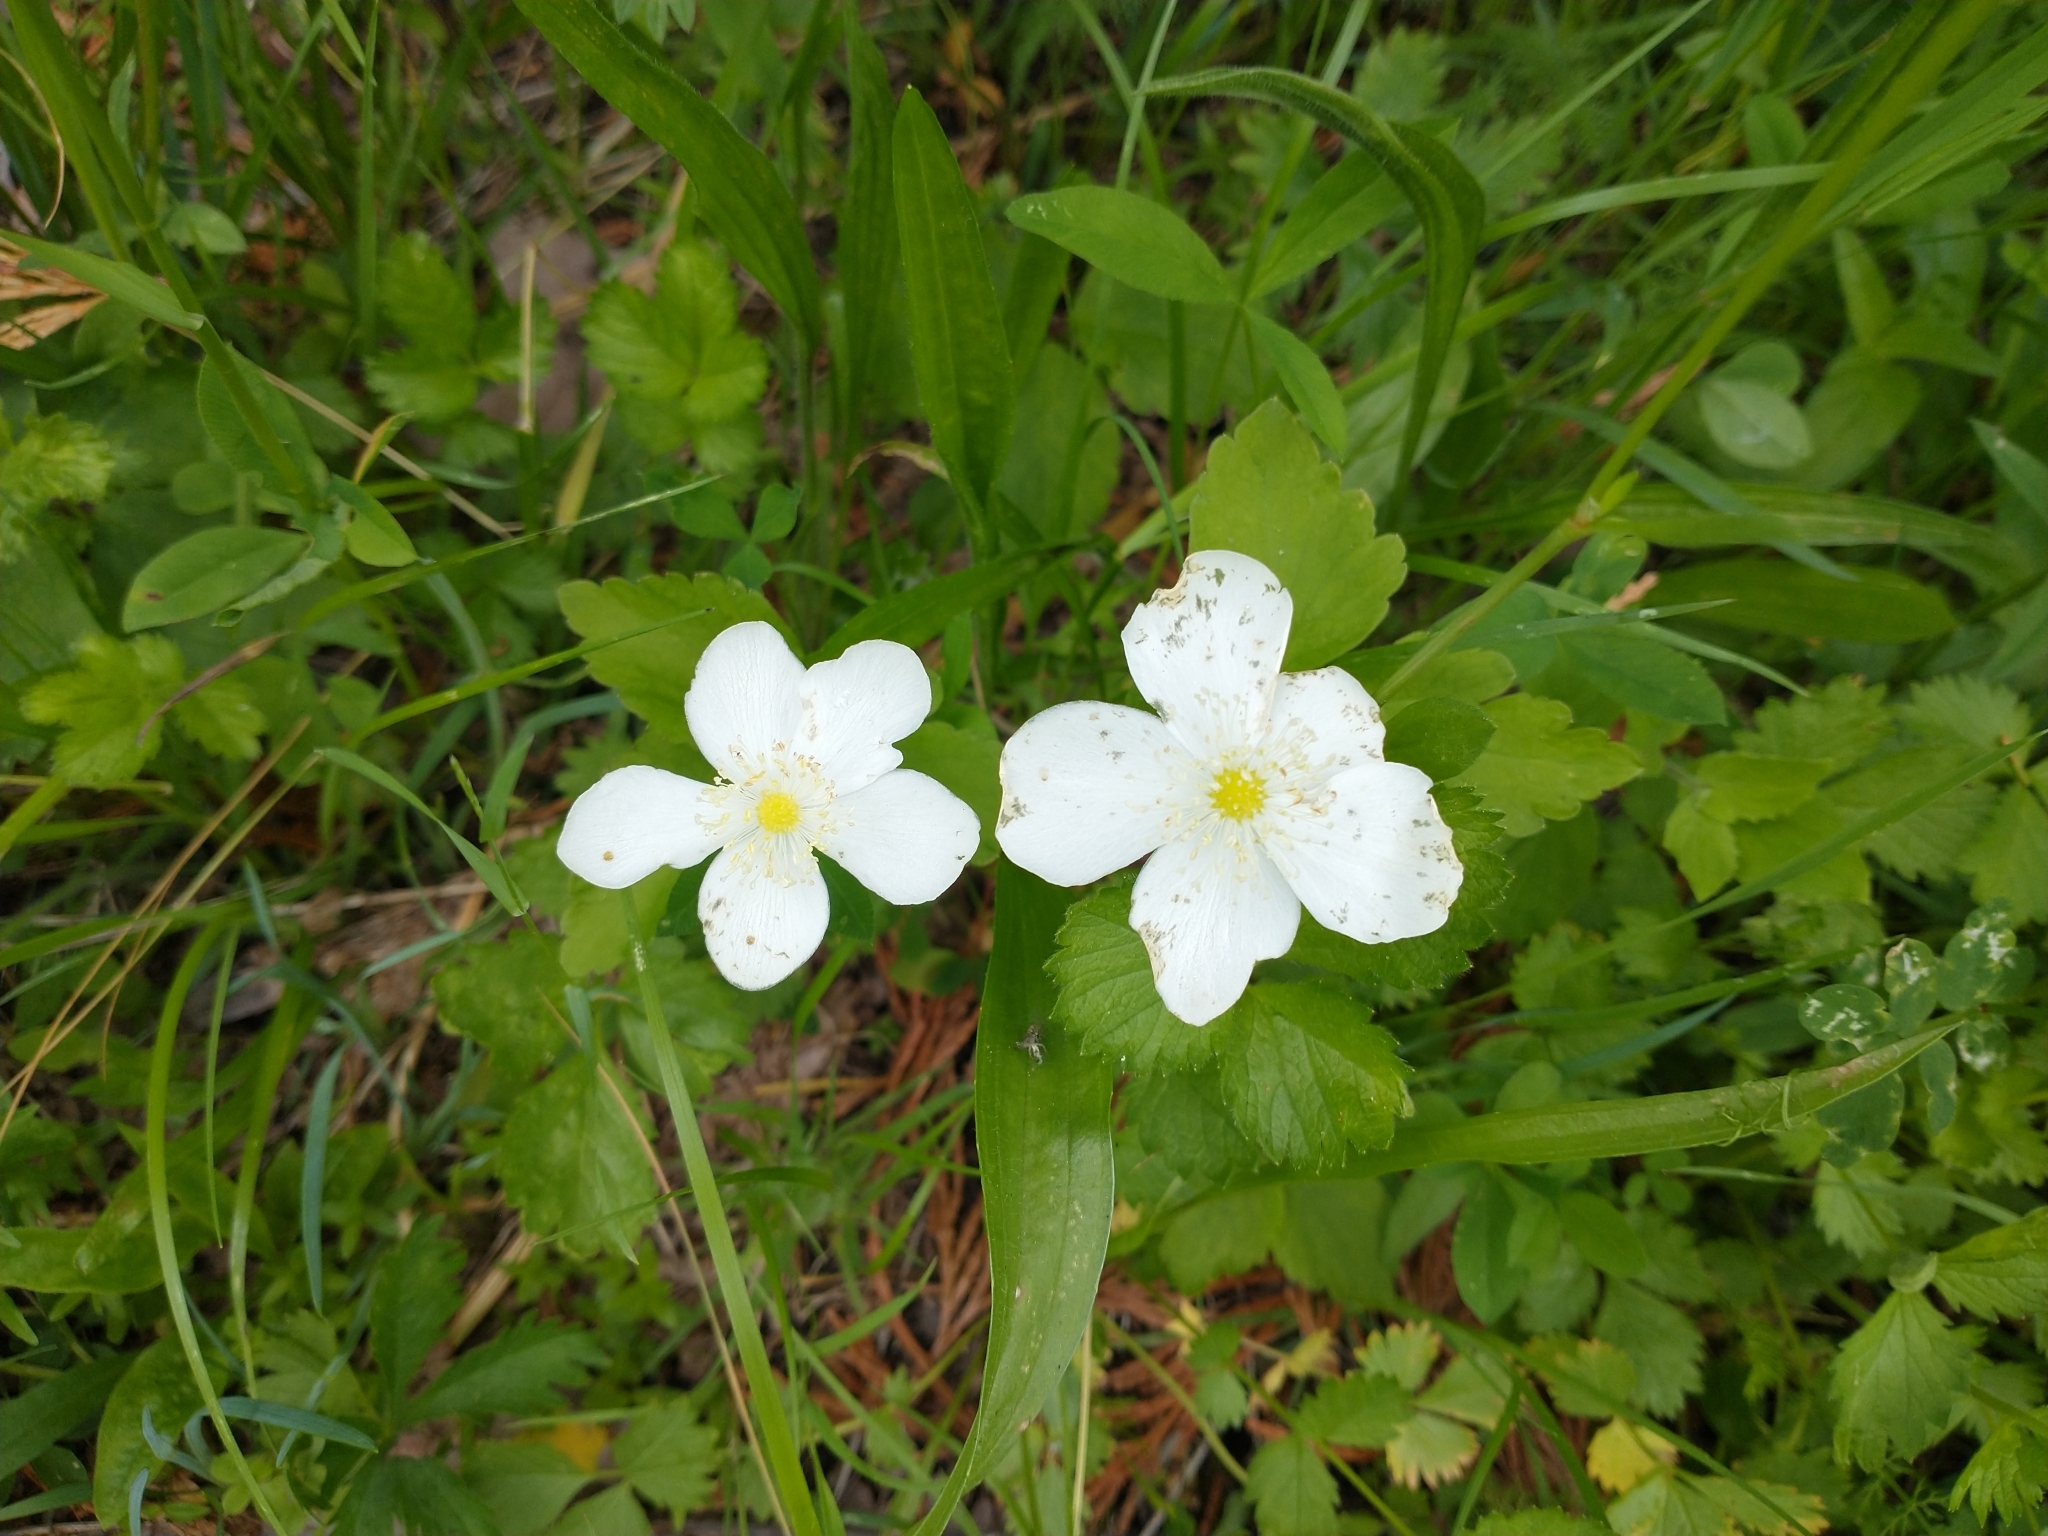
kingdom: Plantae
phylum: Tracheophyta
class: Magnoliopsida
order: Ranunculales
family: Ranunculaceae
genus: Anemonastrum
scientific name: Anemonastrum deltoideum
